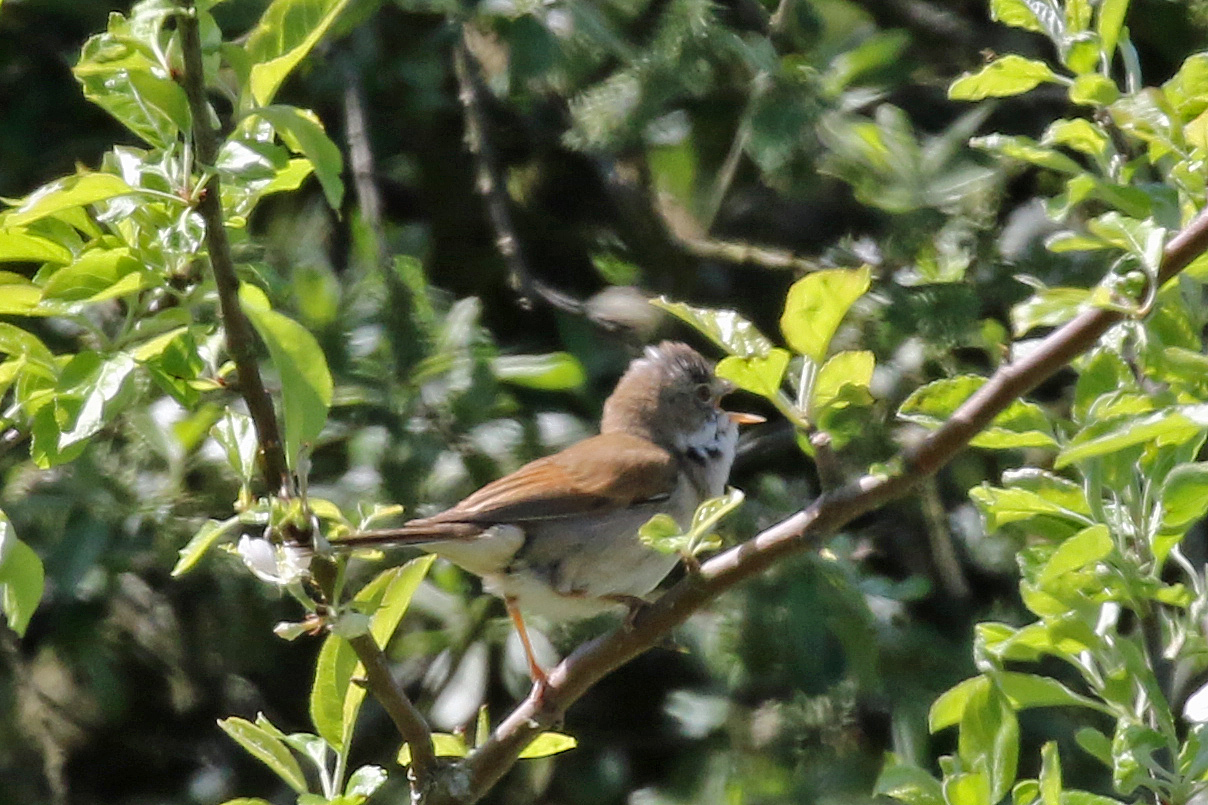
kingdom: Animalia
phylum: Chordata
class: Aves
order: Passeriformes
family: Sylviidae
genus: Sylvia
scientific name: Sylvia communis
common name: Common whitethroat
